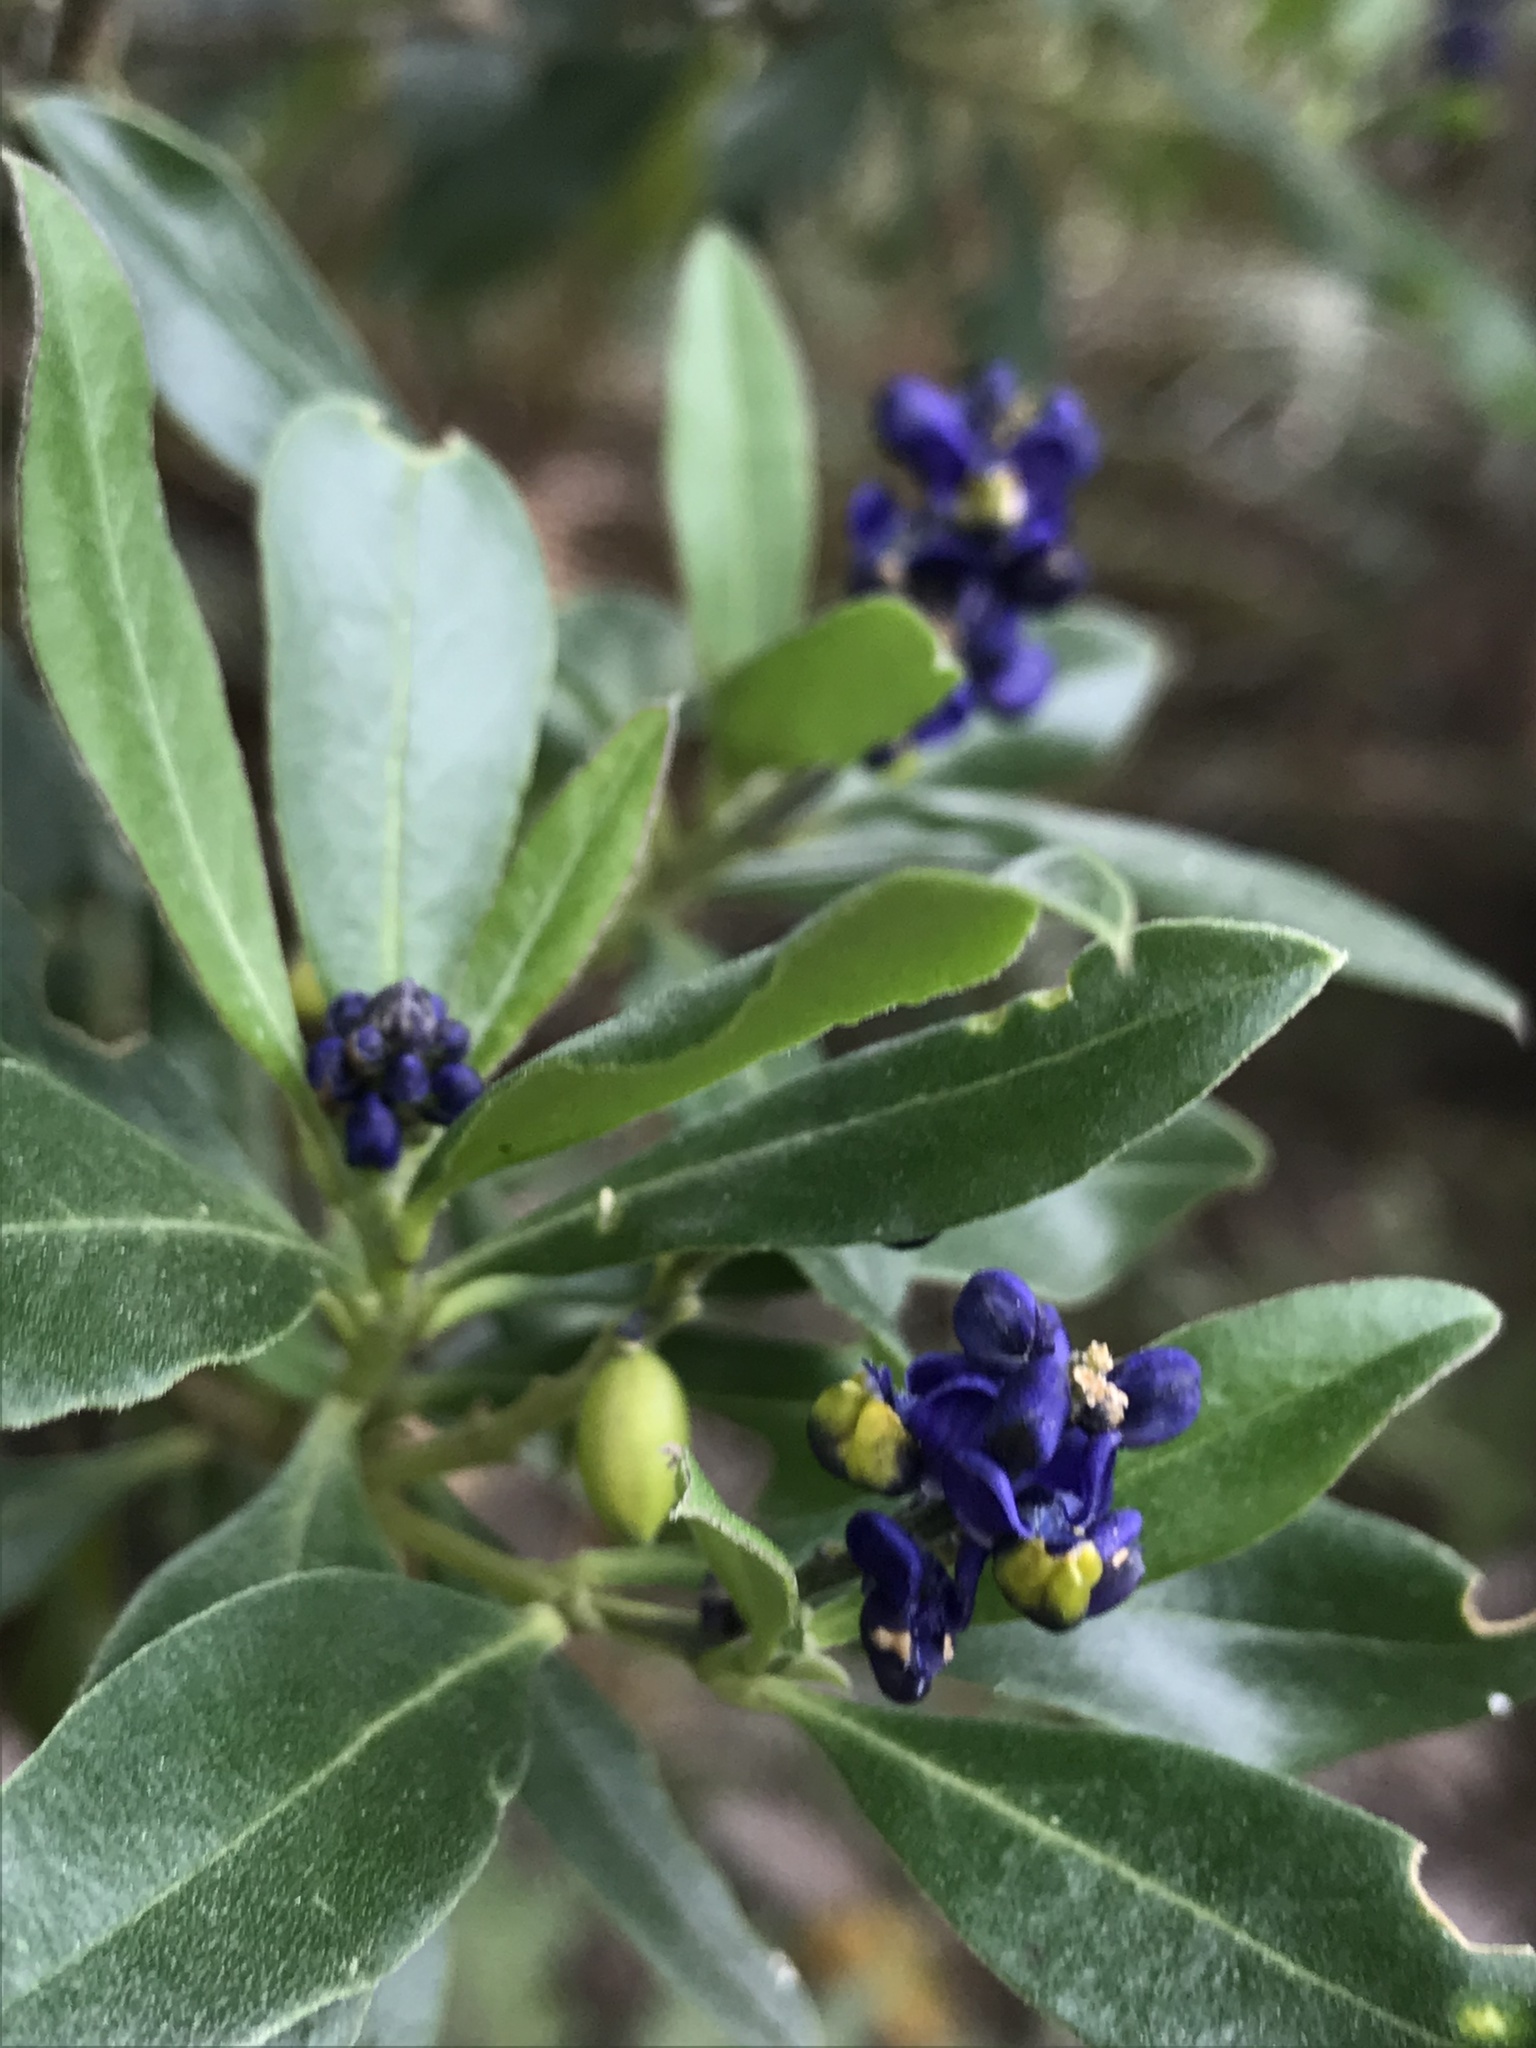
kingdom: Plantae
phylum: Tracheophyta
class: Magnoliopsida
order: Fabales
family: Polygalaceae
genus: Monnina
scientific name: Monnina aestuans
